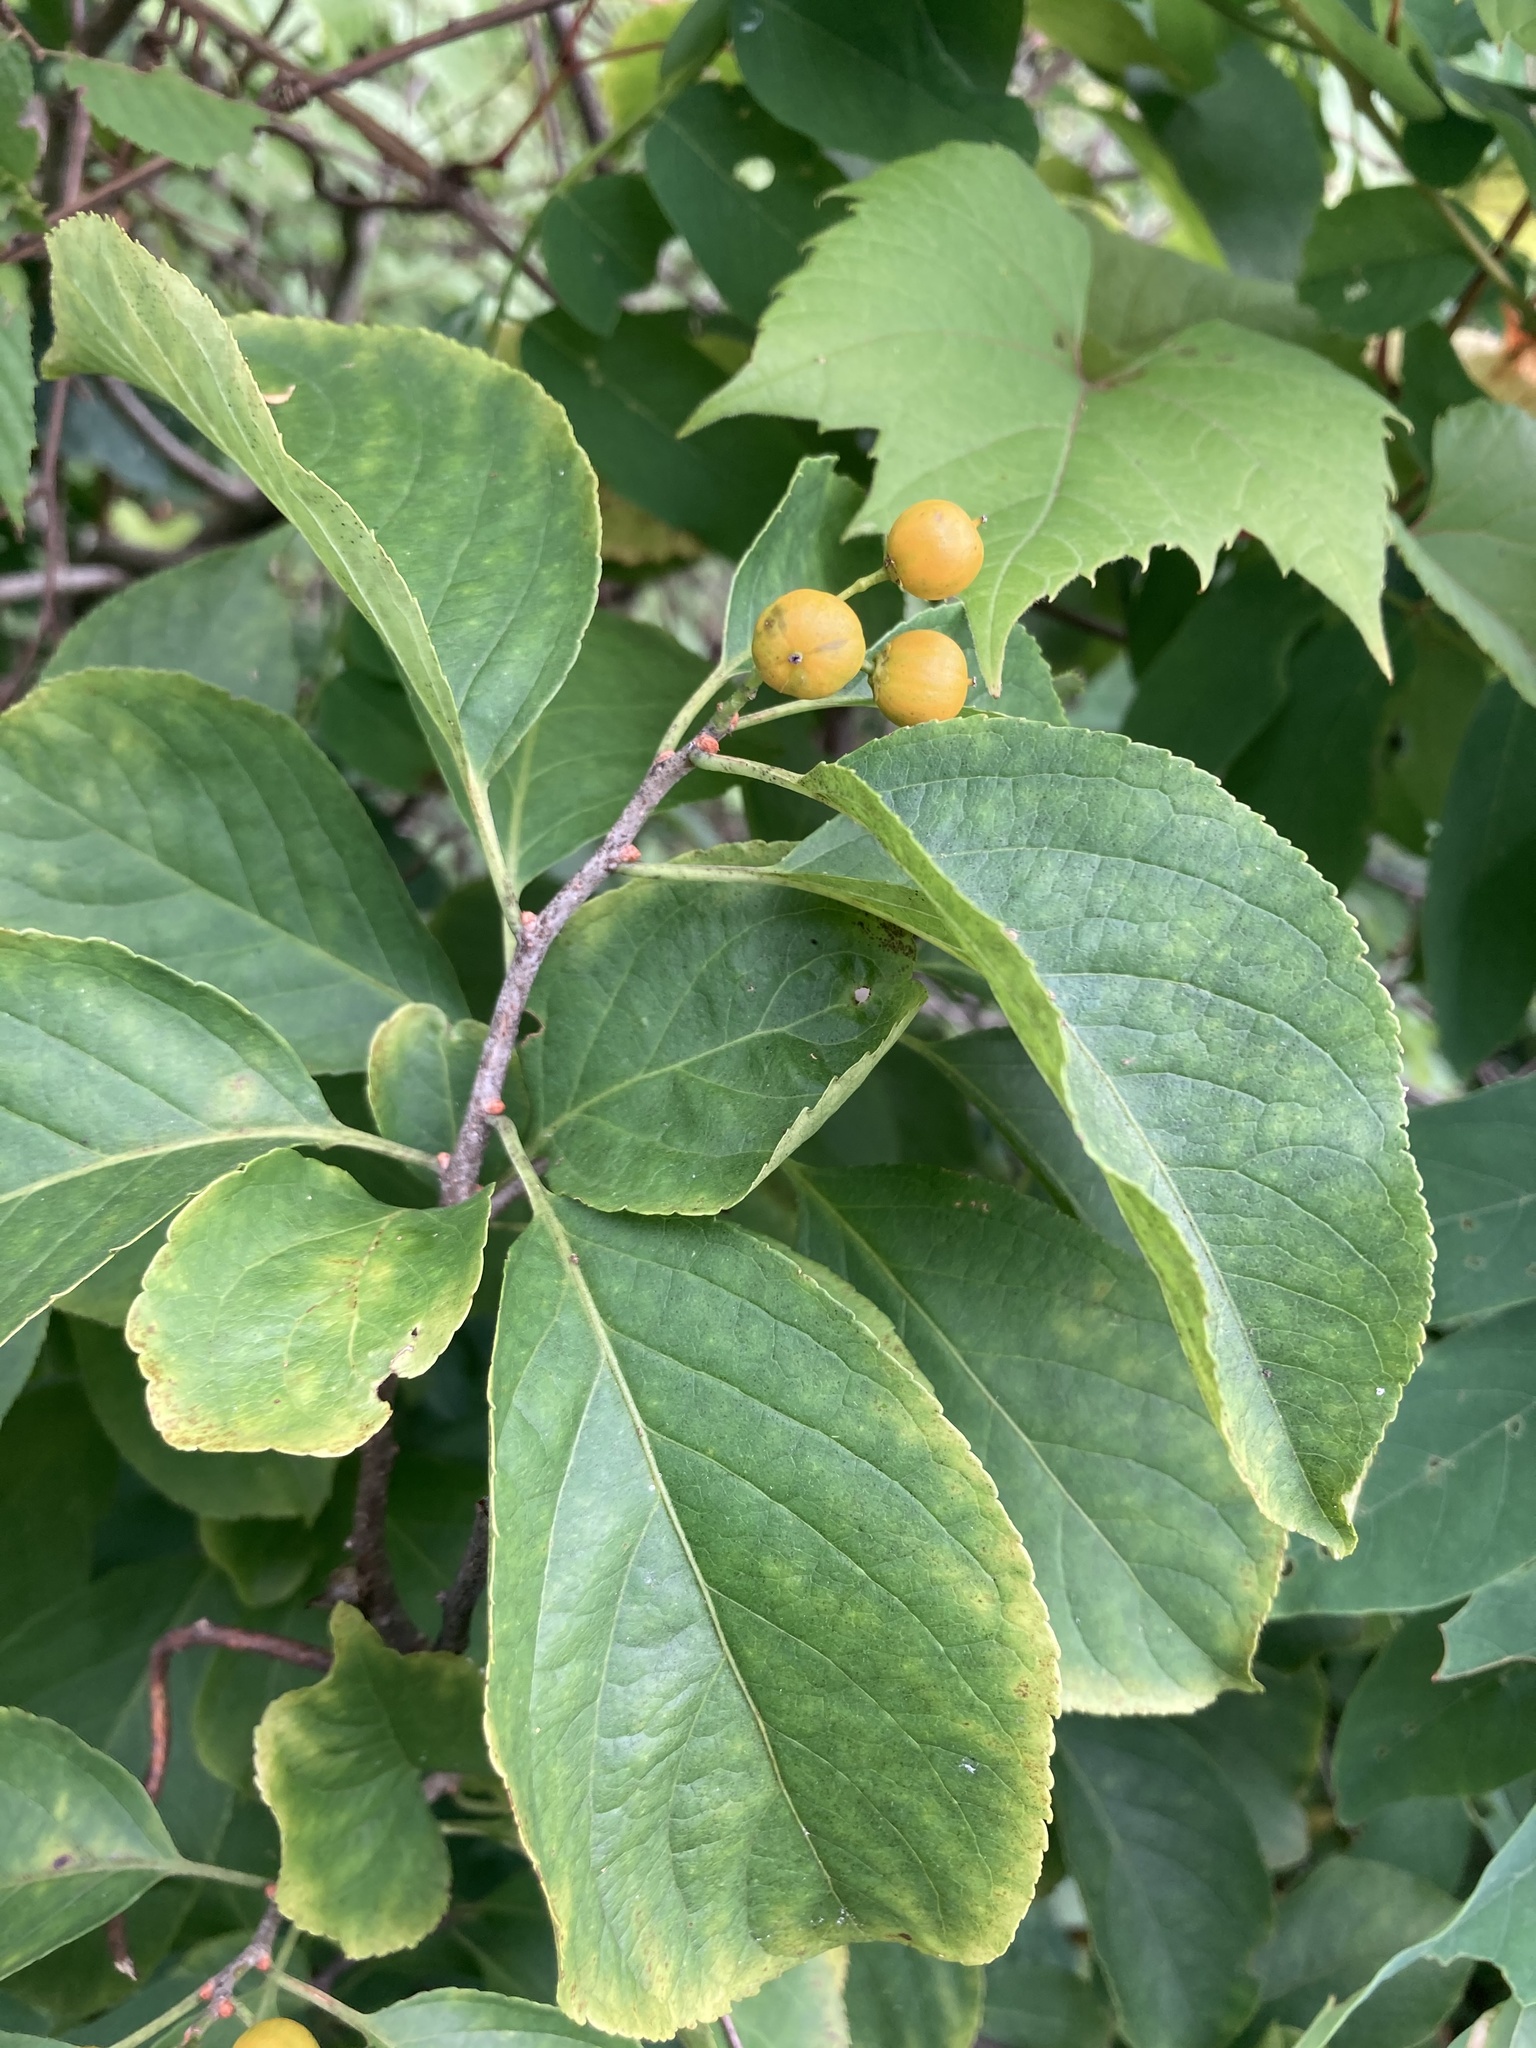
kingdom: Plantae
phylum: Tracheophyta
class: Magnoliopsida
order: Celastrales
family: Celastraceae
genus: Celastrus
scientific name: Celastrus scandens
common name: American bittersweet
